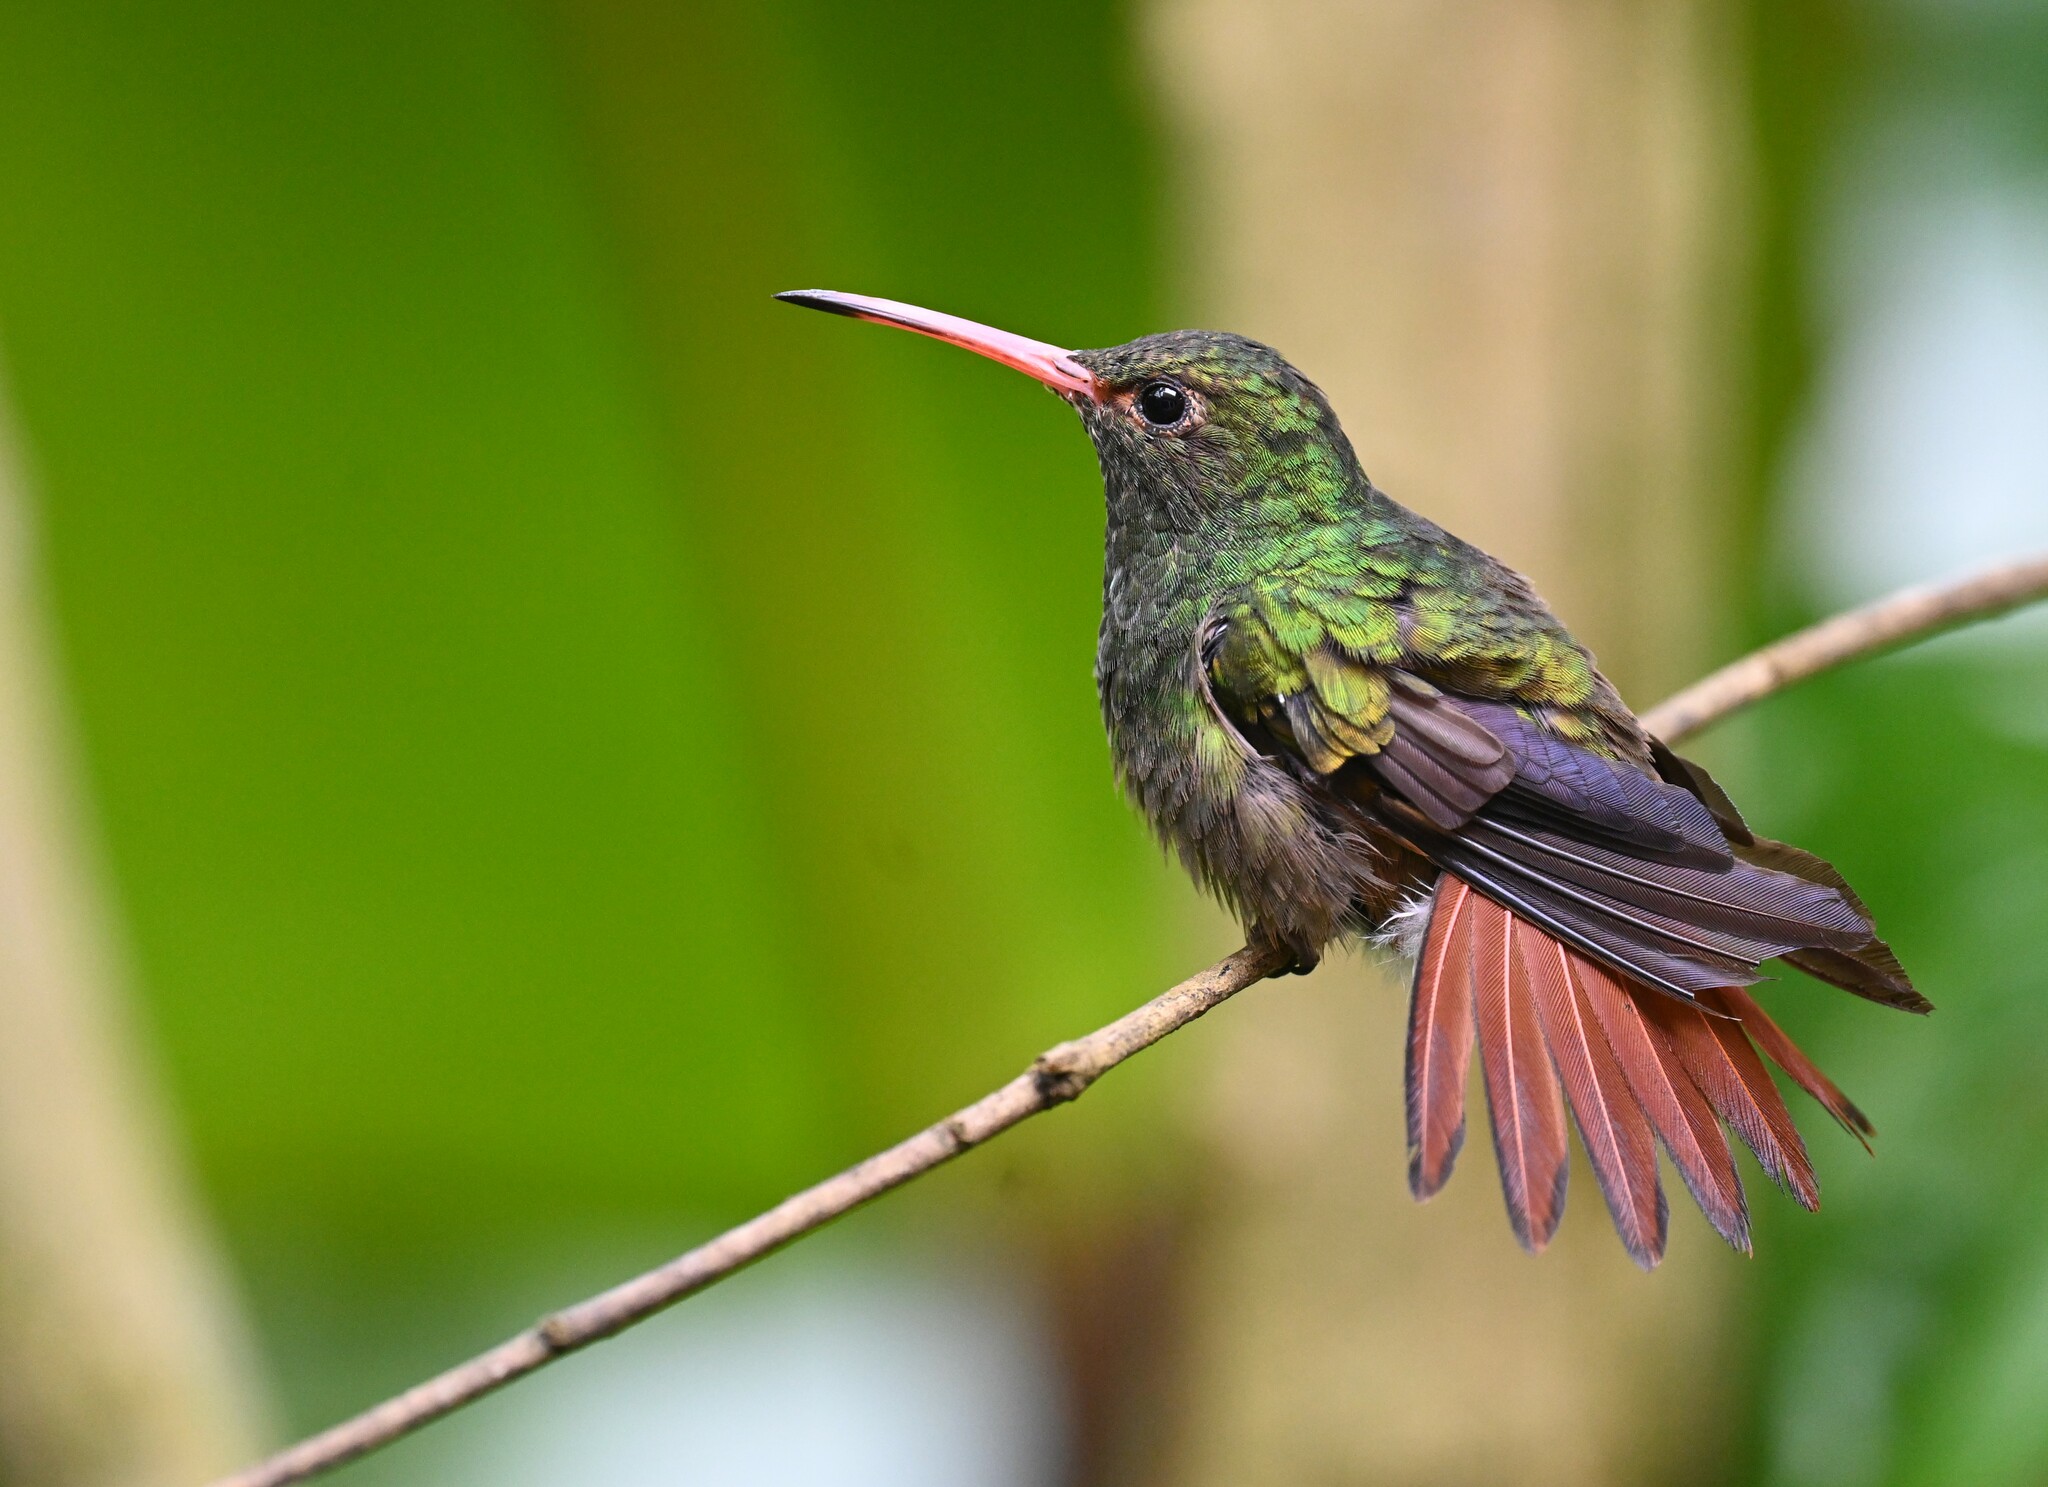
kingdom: Animalia
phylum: Chordata
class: Aves
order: Apodiformes
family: Trochilidae
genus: Amazilia
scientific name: Amazilia tzacatl
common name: Rufous-tailed hummingbird
